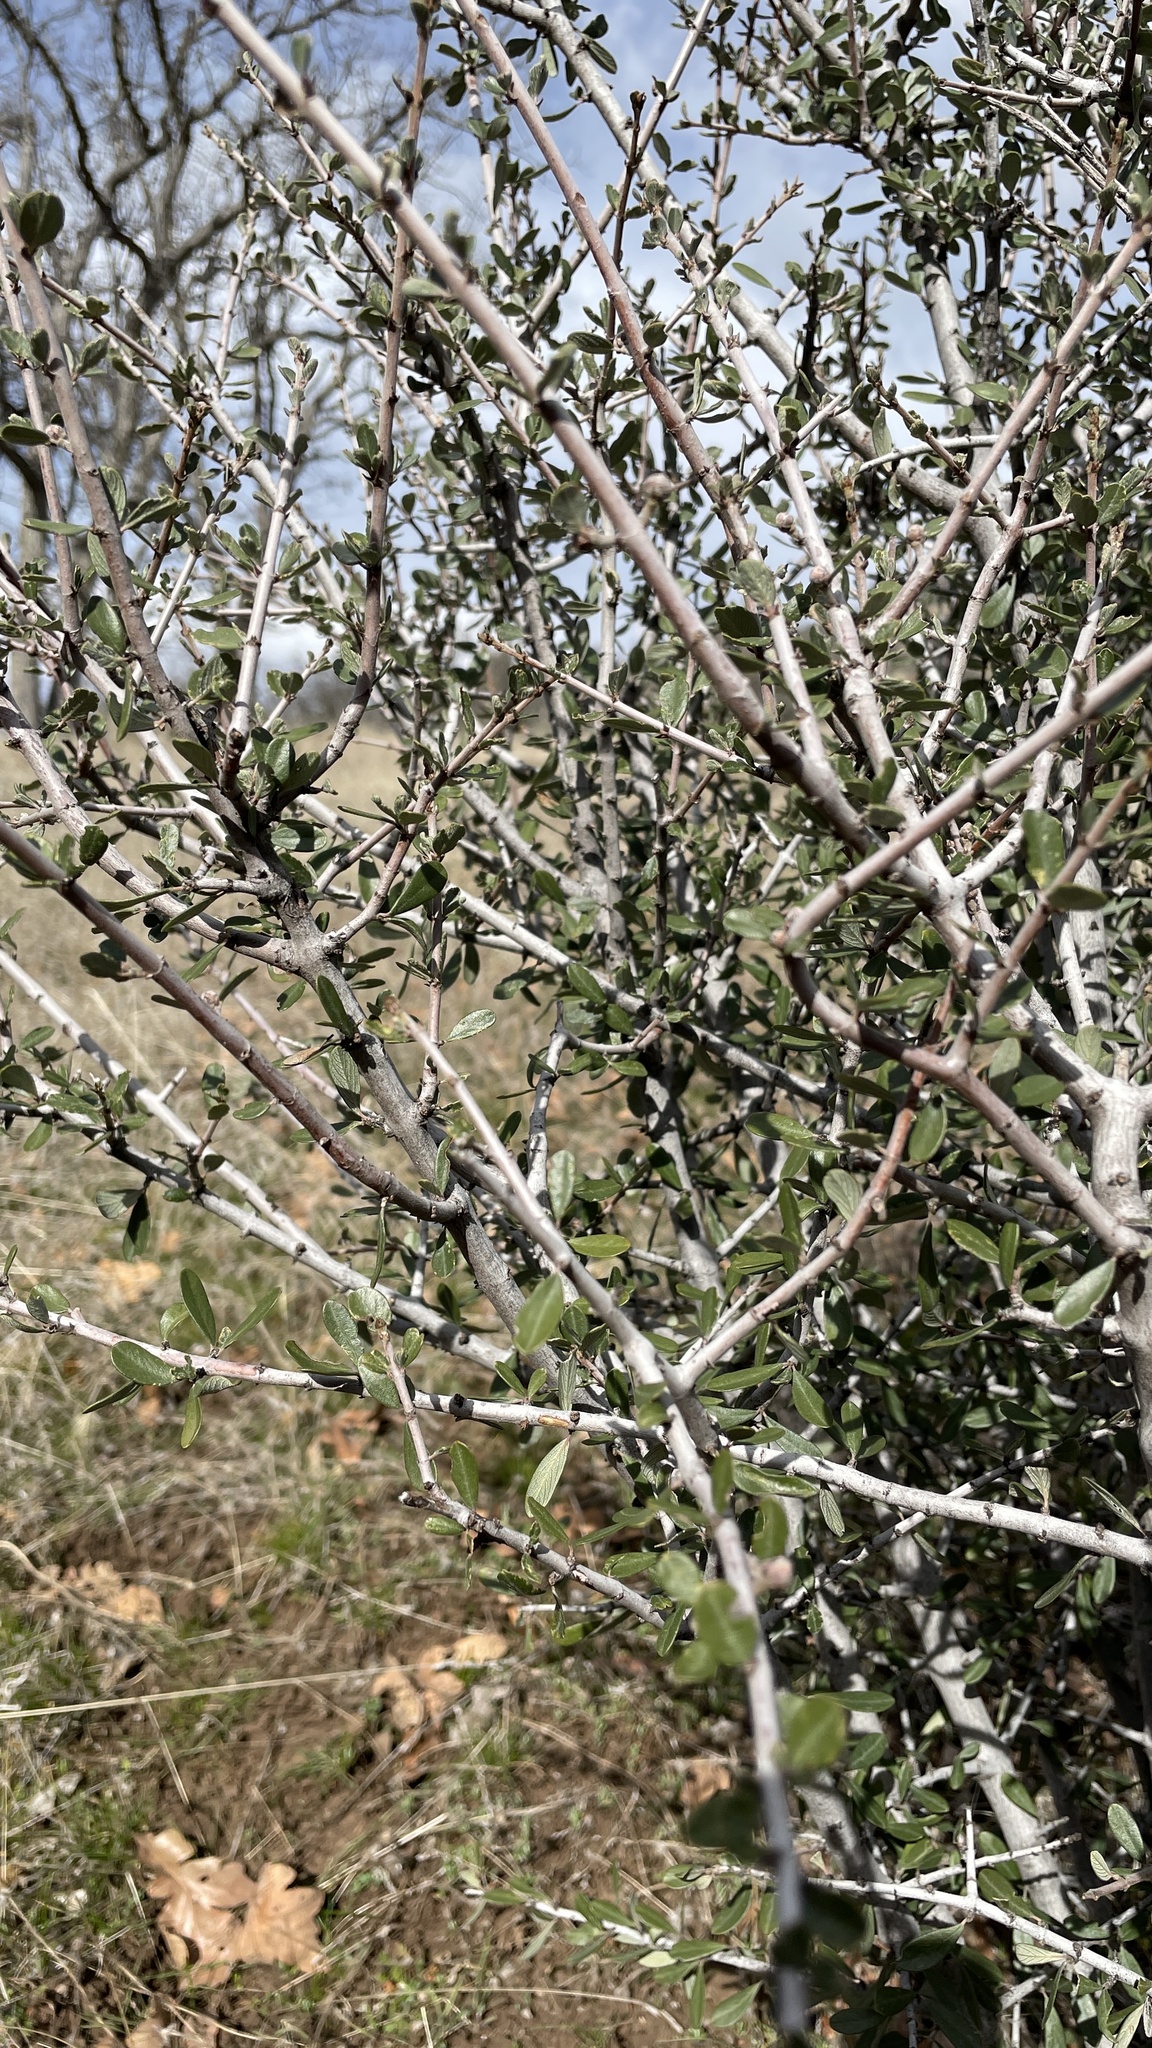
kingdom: Plantae
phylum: Tracheophyta
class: Magnoliopsida
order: Rosales
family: Rhamnaceae
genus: Ceanothus
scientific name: Ceanothus cuneatus
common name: Cuneate ceanothus
